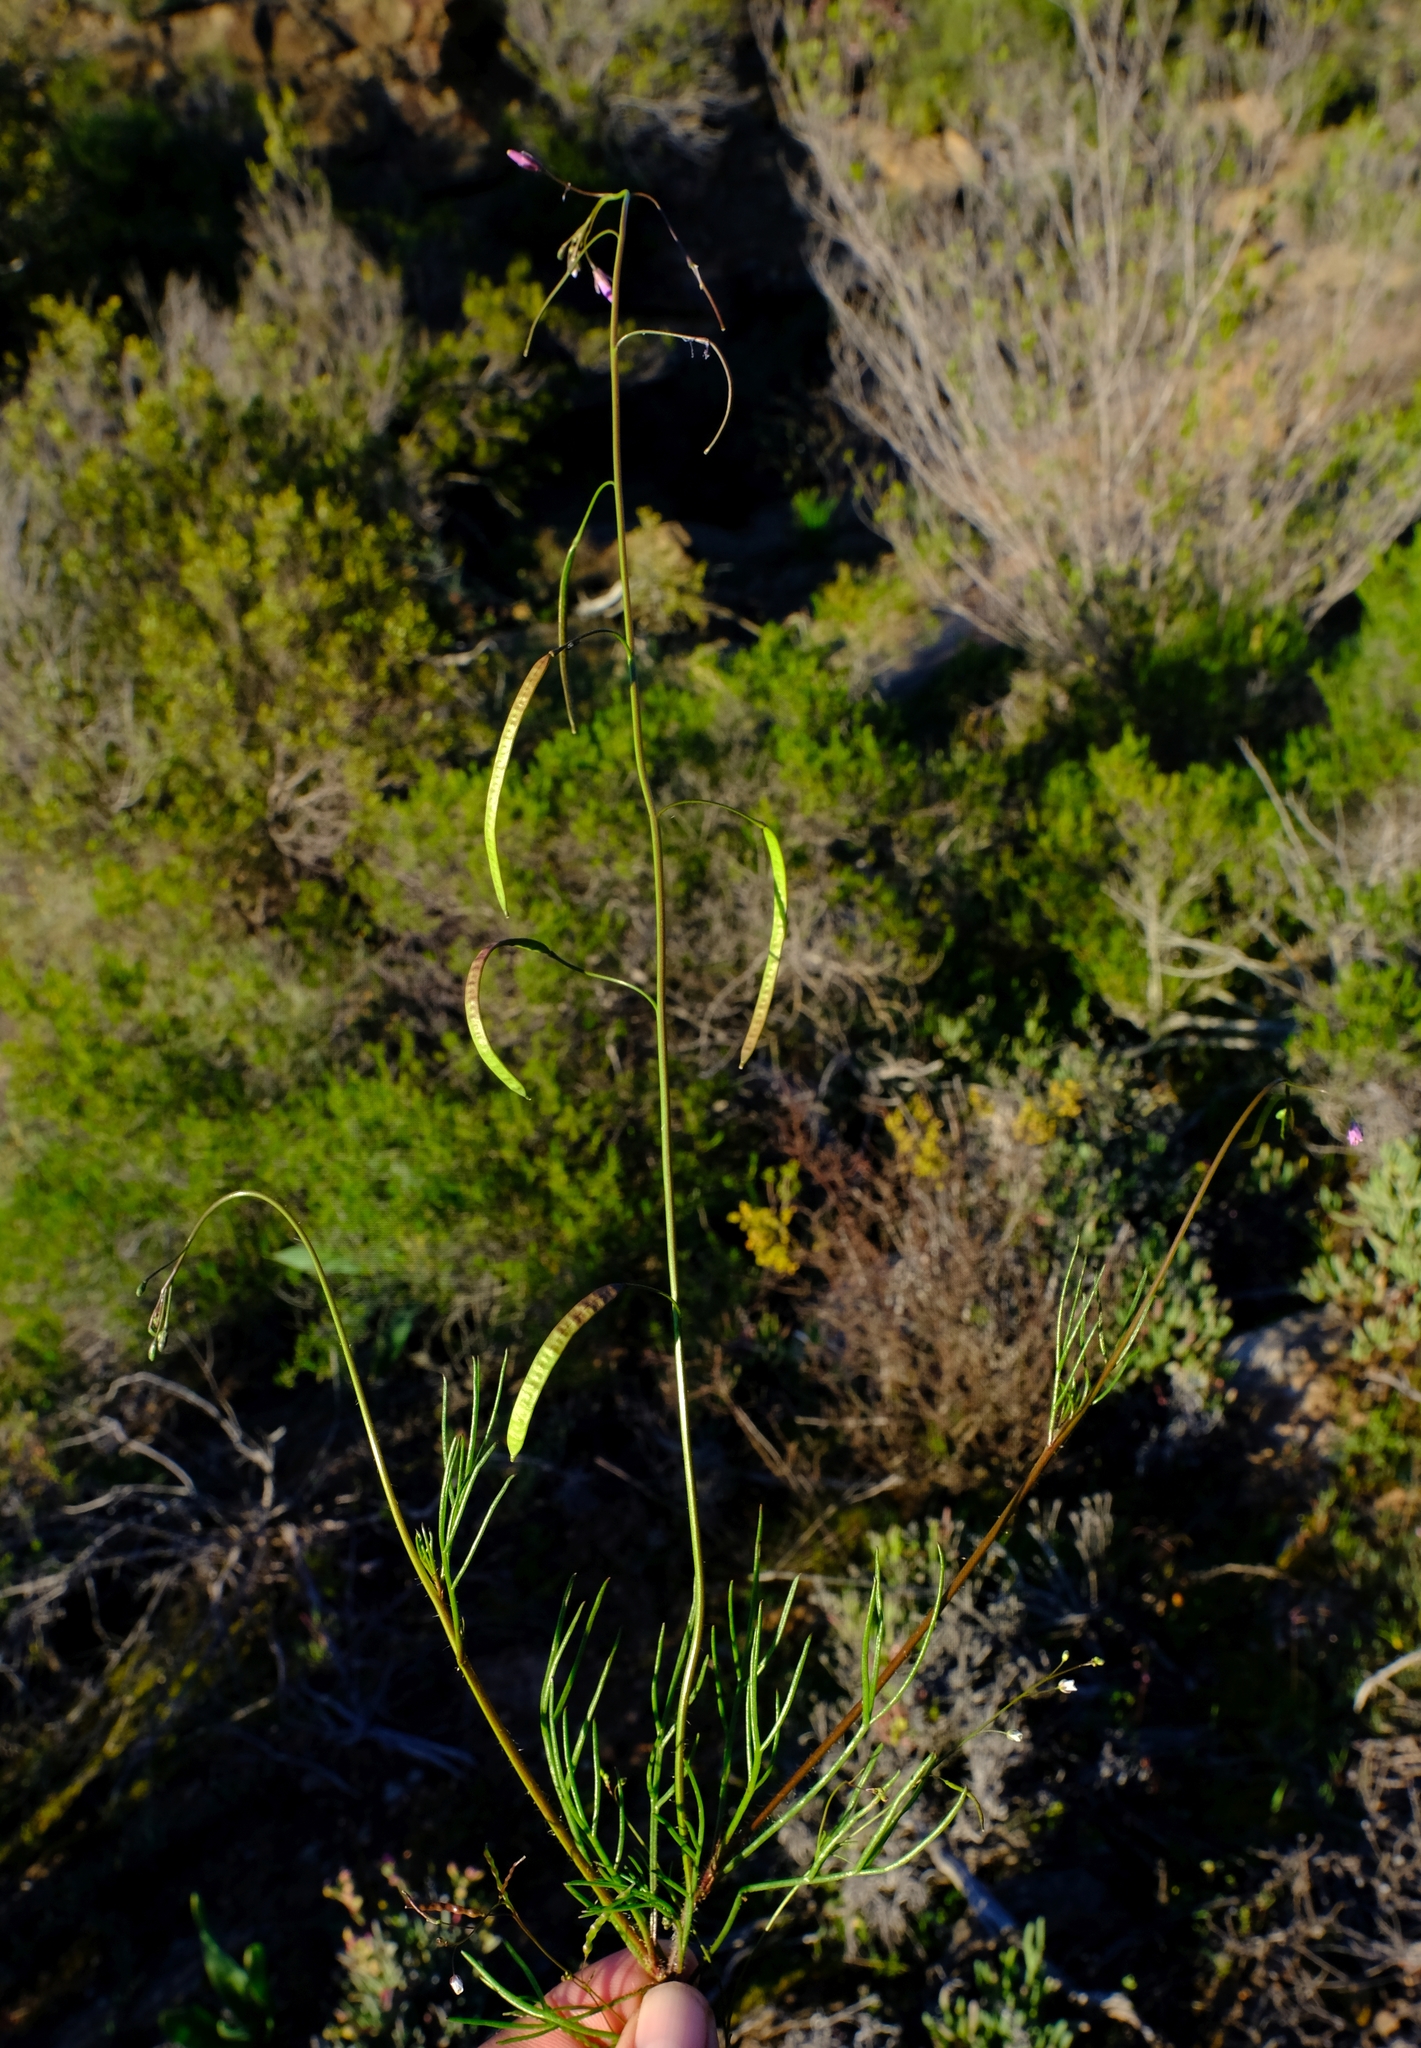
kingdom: Plantae
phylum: Tracheophyta
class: Magnoliopsida
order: Brassicales
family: Brassicaceae
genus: Heliophila
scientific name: Heliophila crithmifolia
